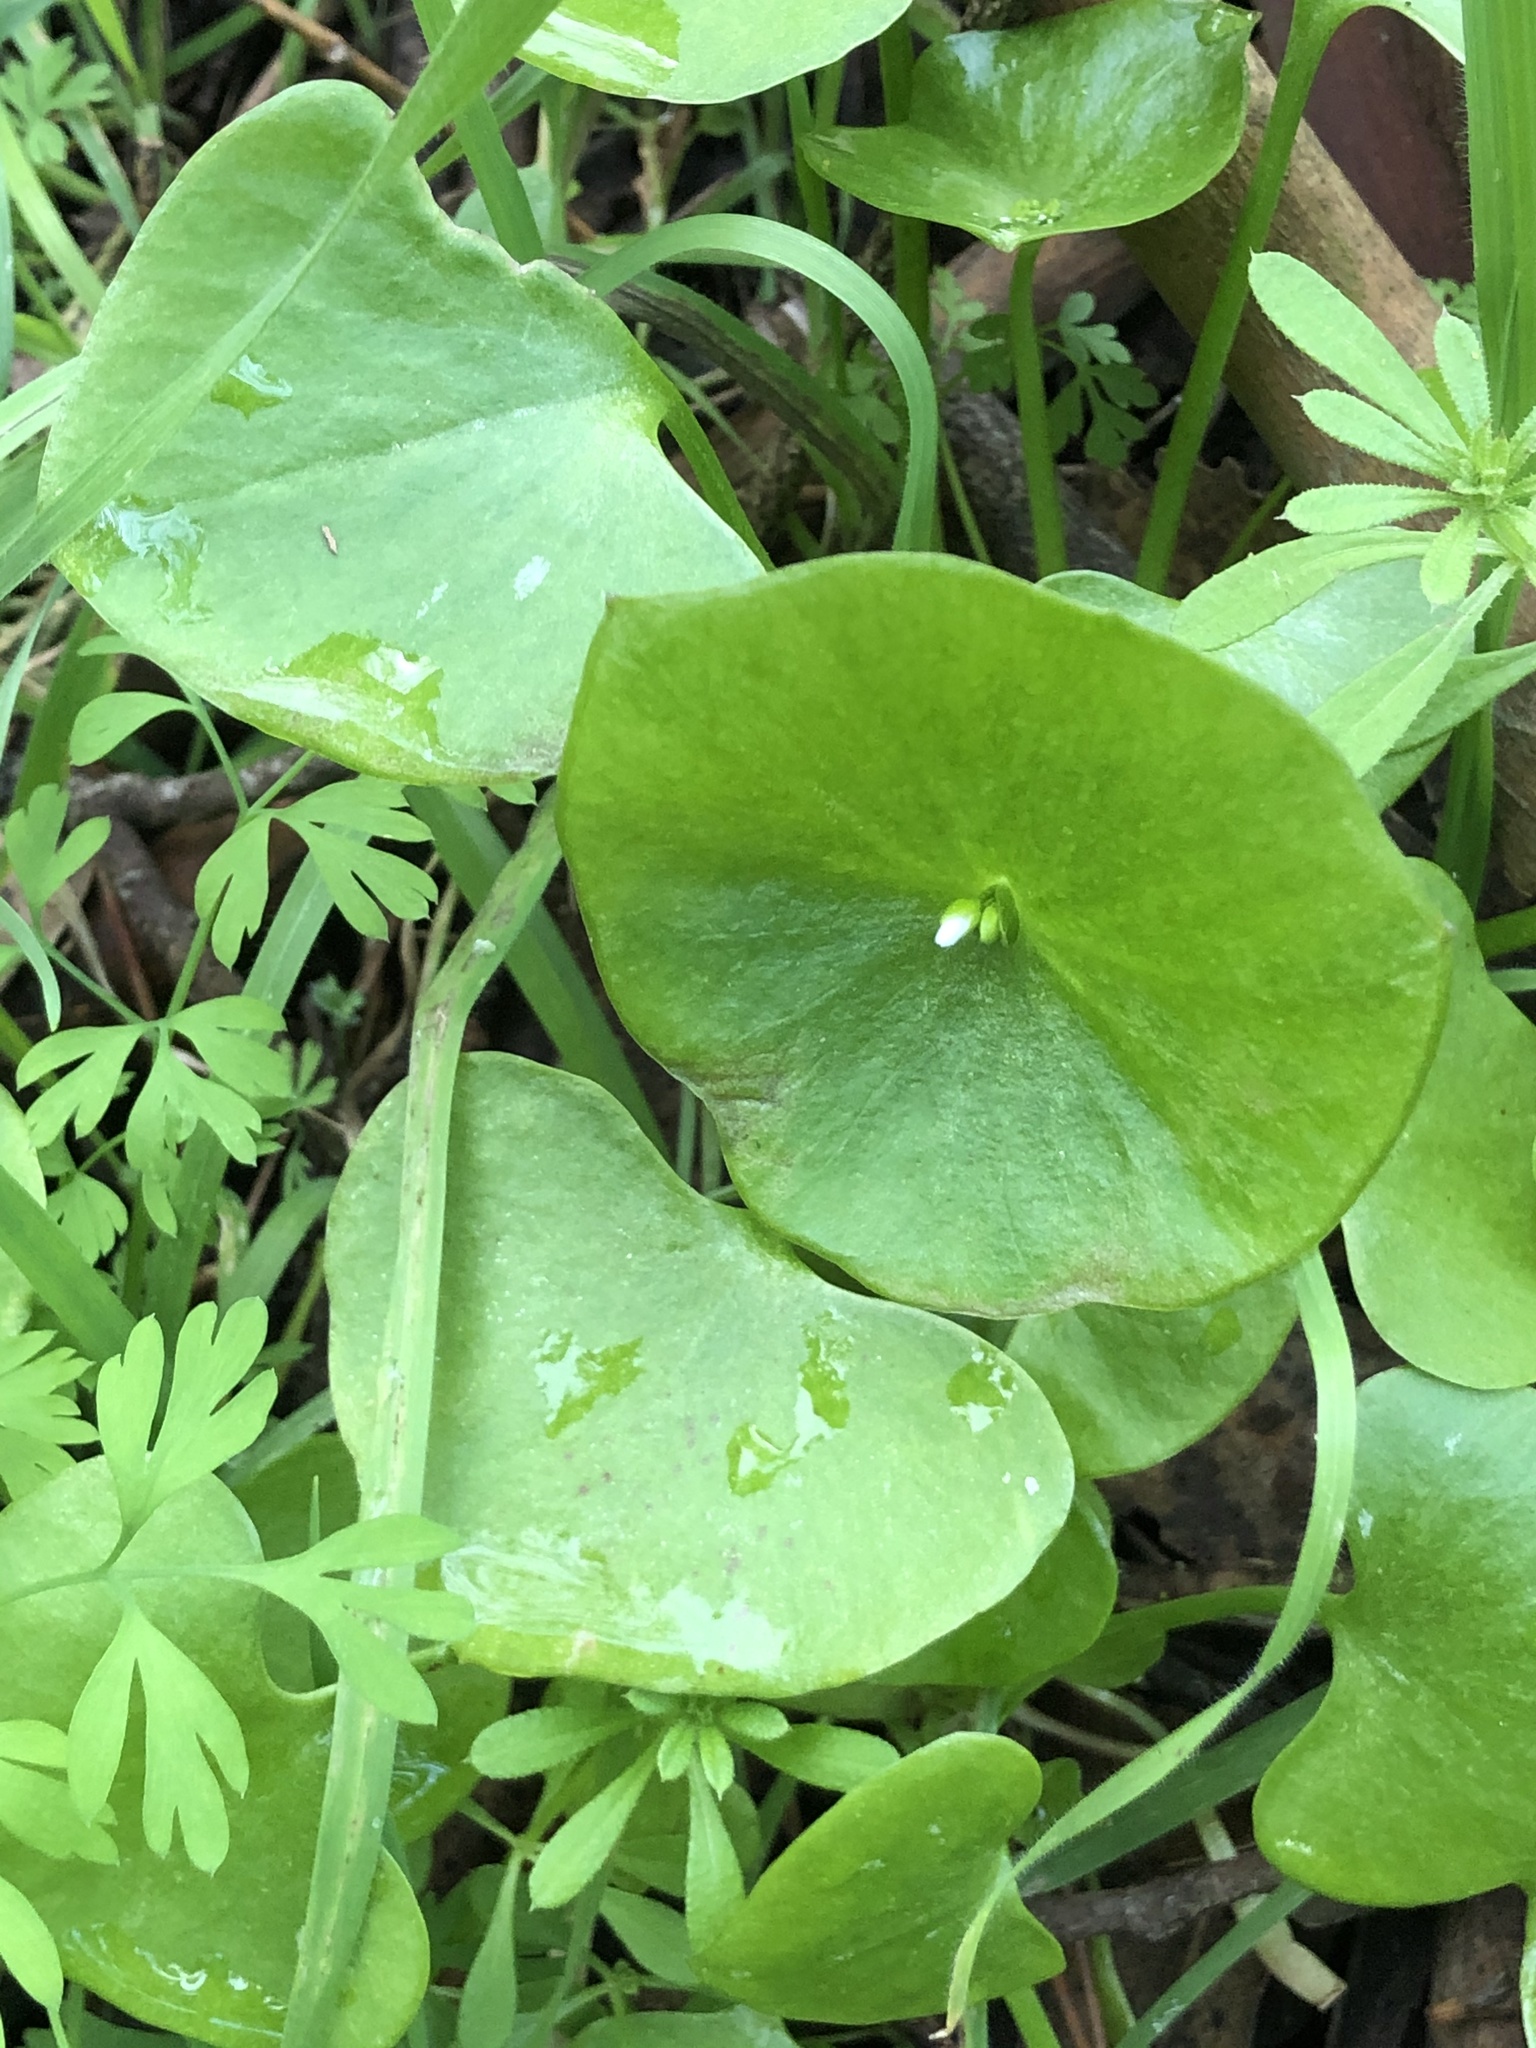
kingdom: Plantae
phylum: Tracheophyta
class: Magnoliopsida
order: Caryophyllales
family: Montiaceae
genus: Claytonia
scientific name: Claytonia perfoliata
